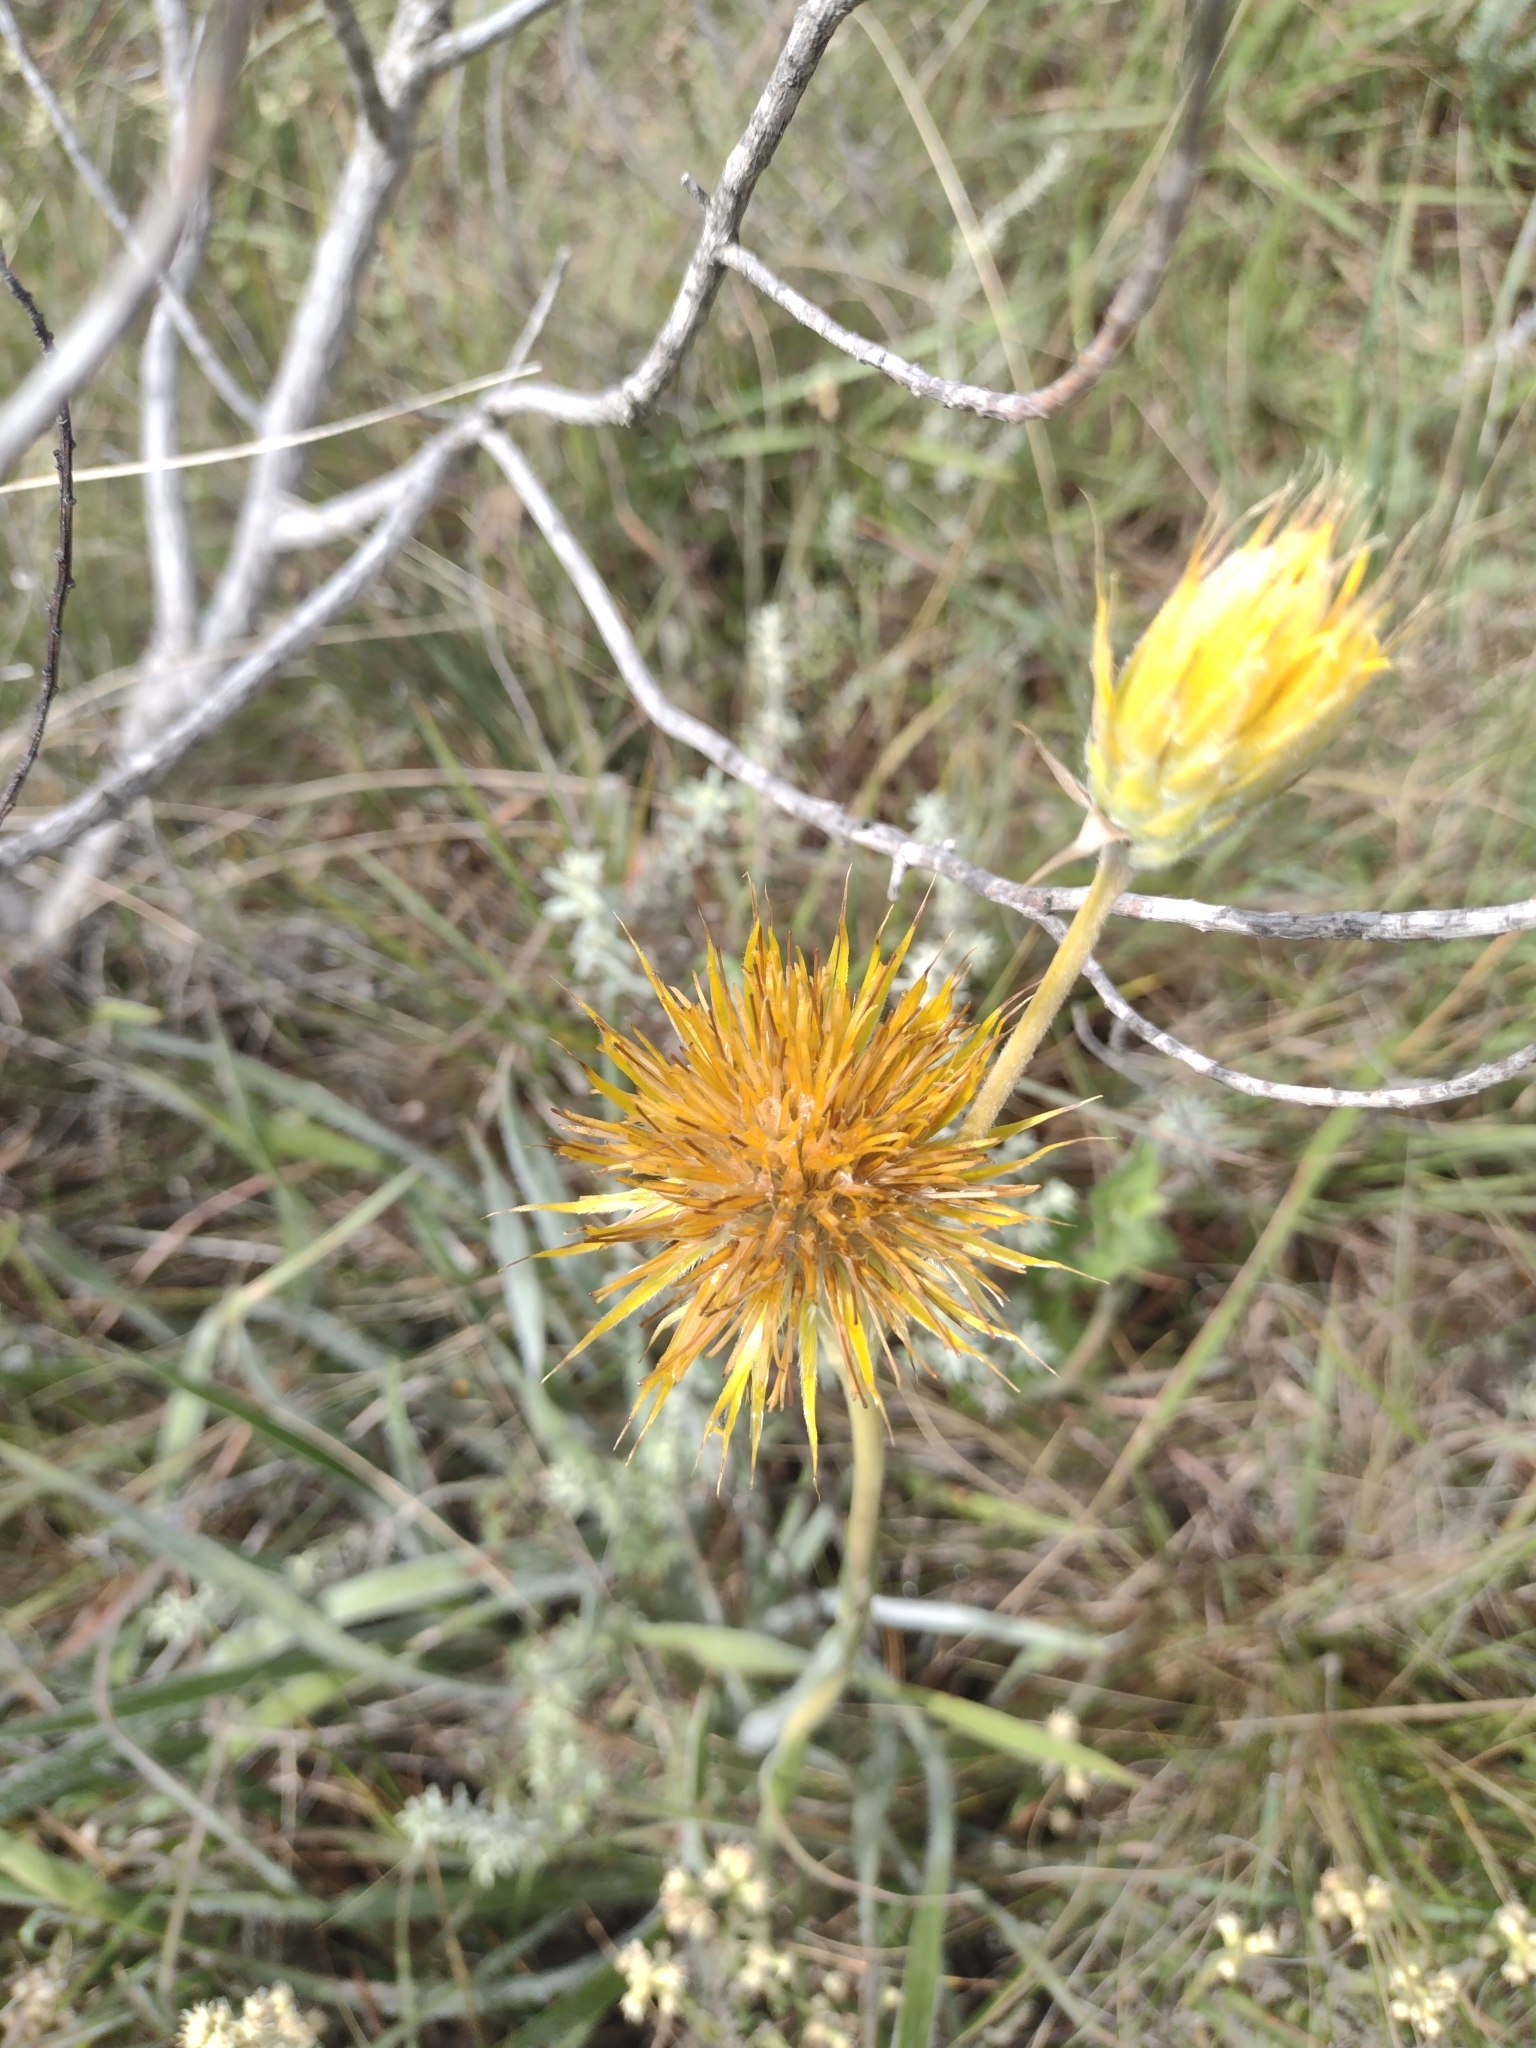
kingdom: Plantae
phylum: Tracheophyta
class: Magnoliopsida
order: Asterales
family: Asteraceae
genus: Schlechtendalia
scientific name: Schlechtendalia luzulifolia
